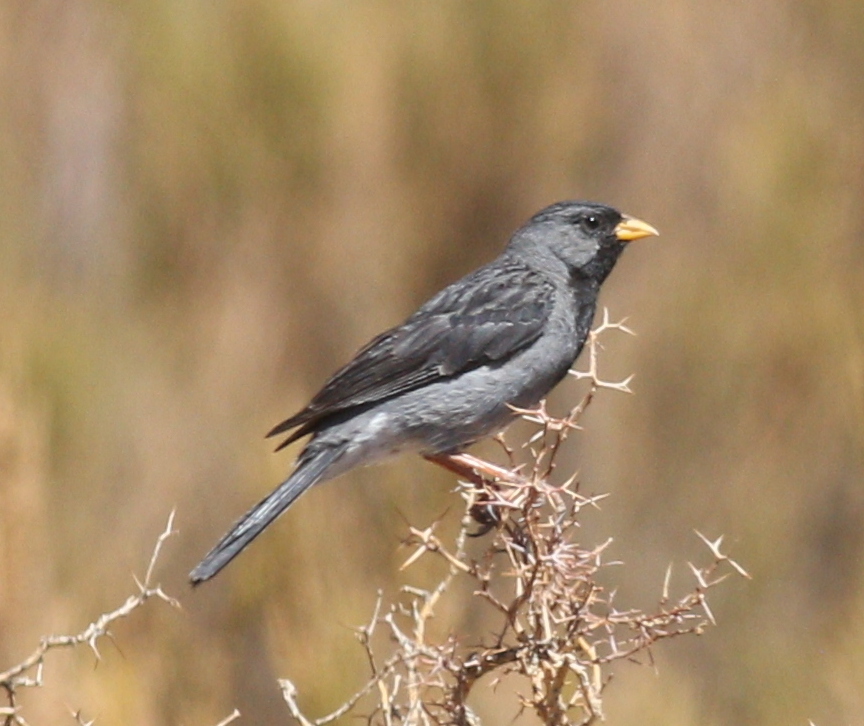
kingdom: Animalia
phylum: Chordata
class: Aves
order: Passeriformes
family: Thraupidae
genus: Rhopospina
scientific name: Rhopospina fruticeti
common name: Mourning sierra finch
